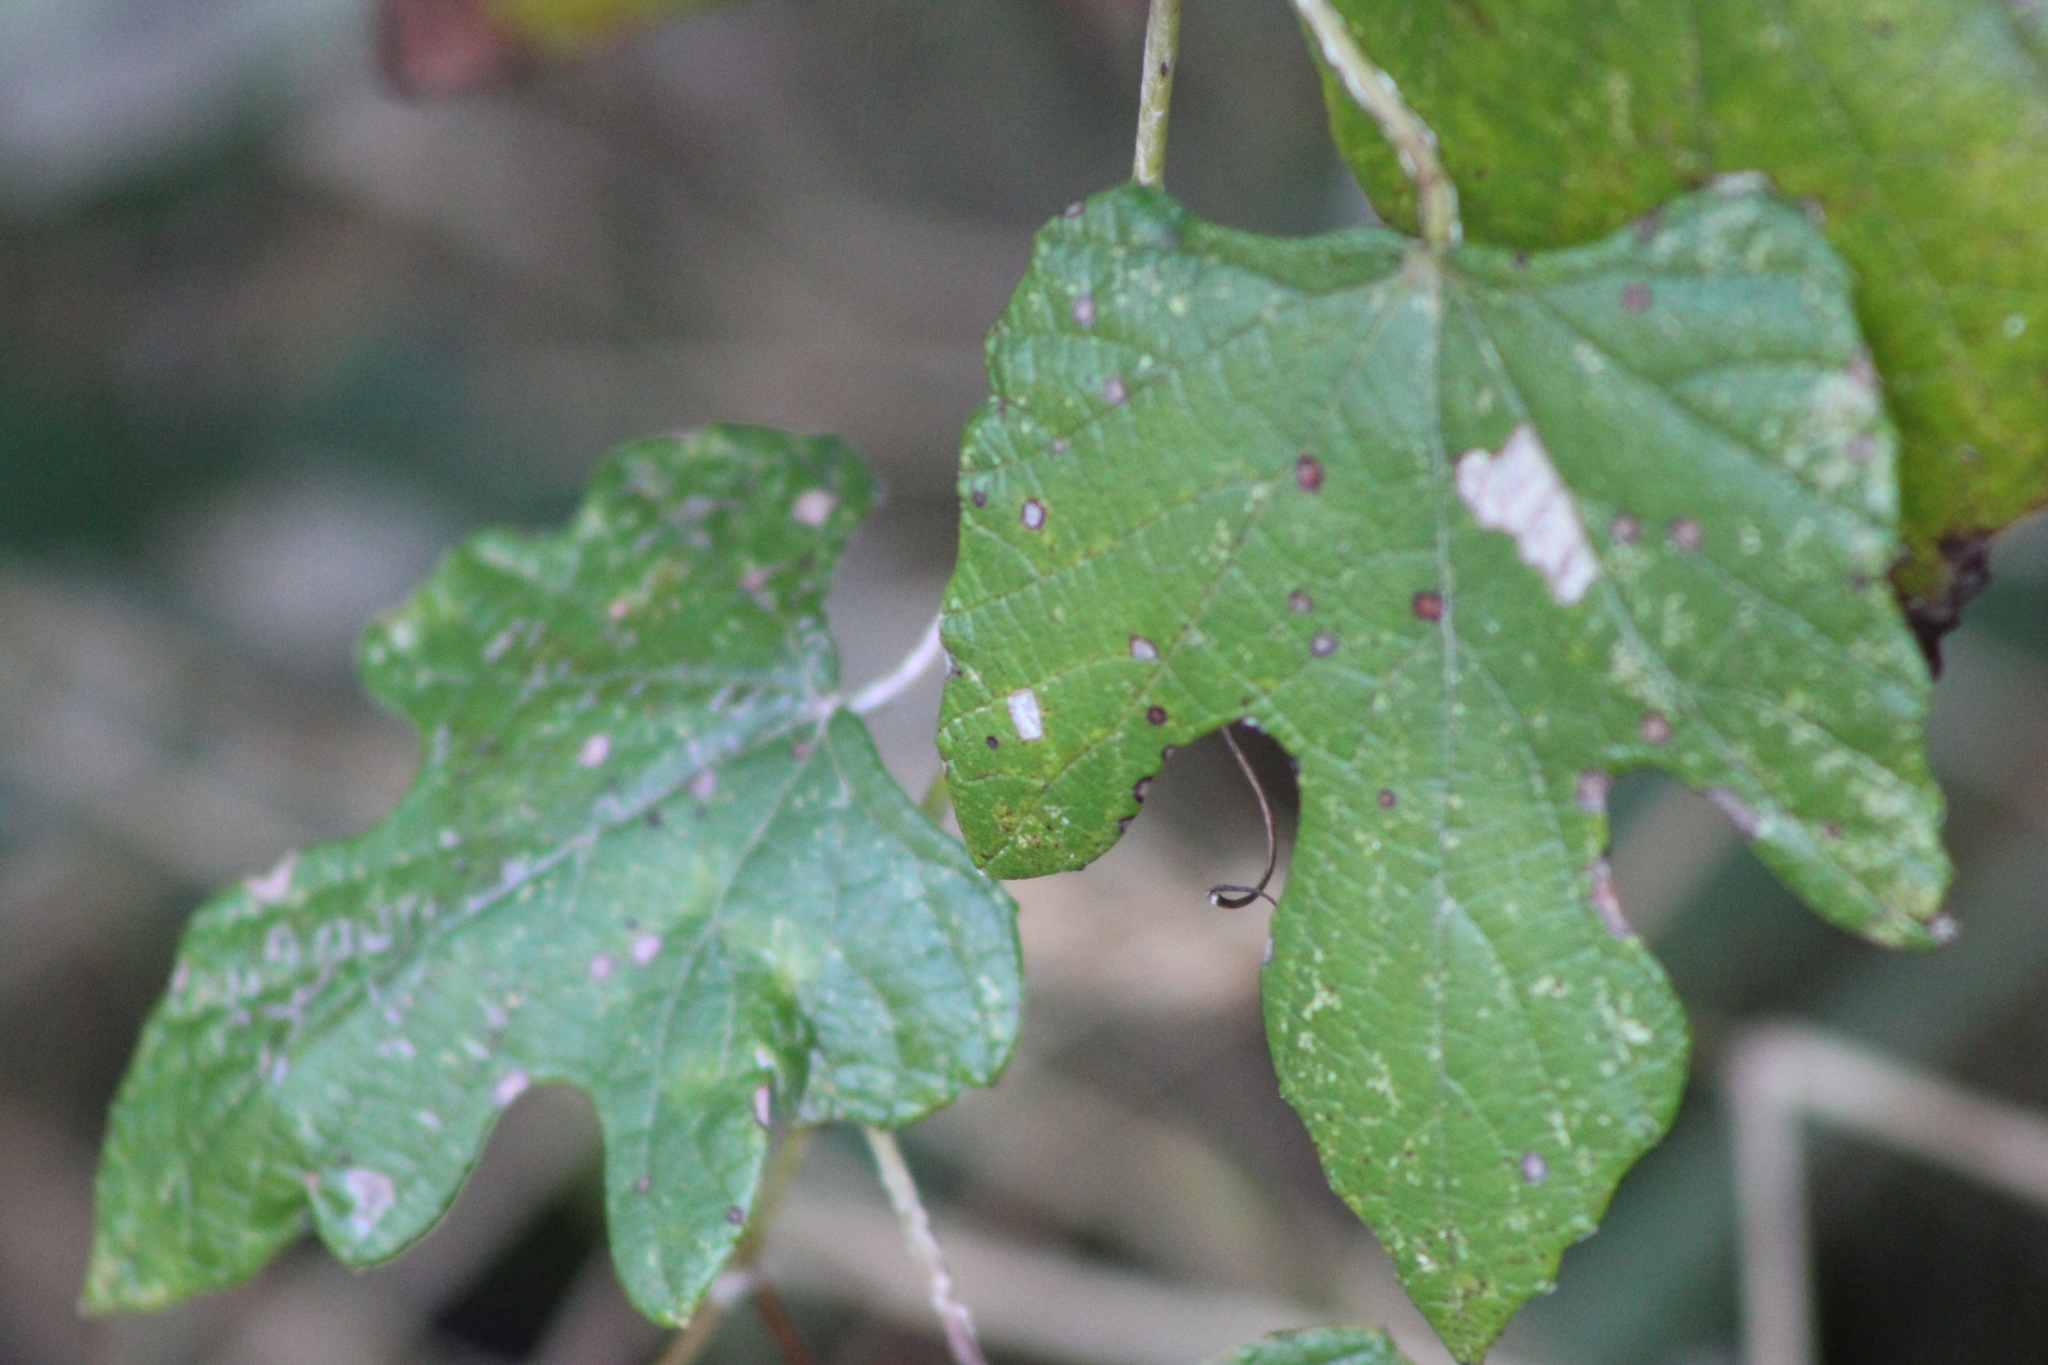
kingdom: Plantae
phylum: Tracheophyta
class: Magnoliopsida
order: Vitales
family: Vitaceae
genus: Vitis
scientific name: Vitis mustangensis
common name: Mustang grape
